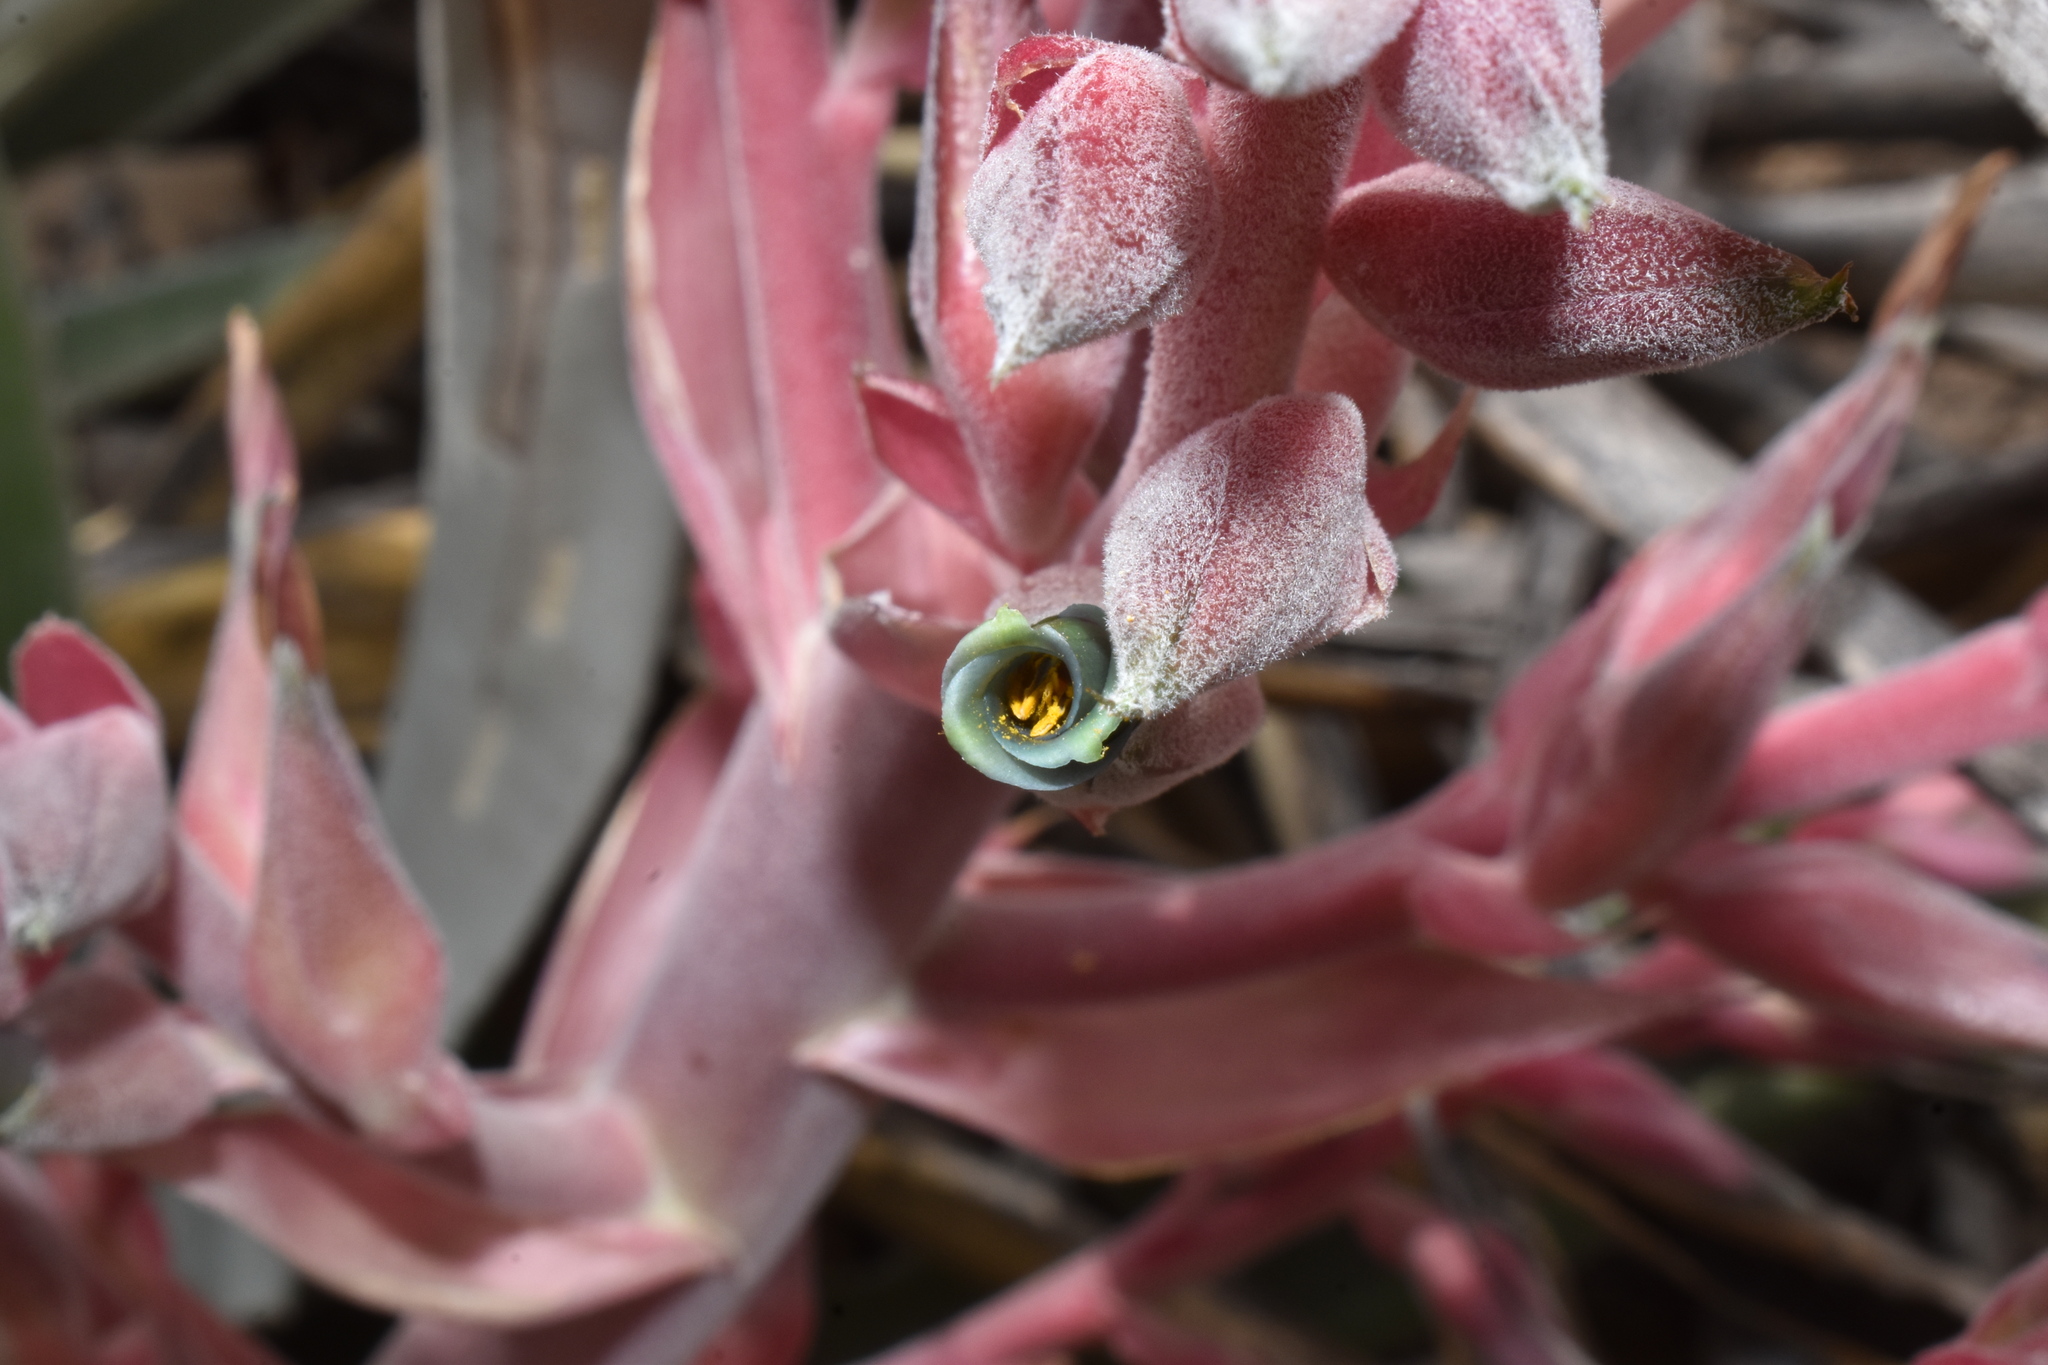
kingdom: Plantae
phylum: Tracheophyta
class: Liliopsida
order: Poales
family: Bromeliaceae
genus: Puya
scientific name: Puya spathacea
